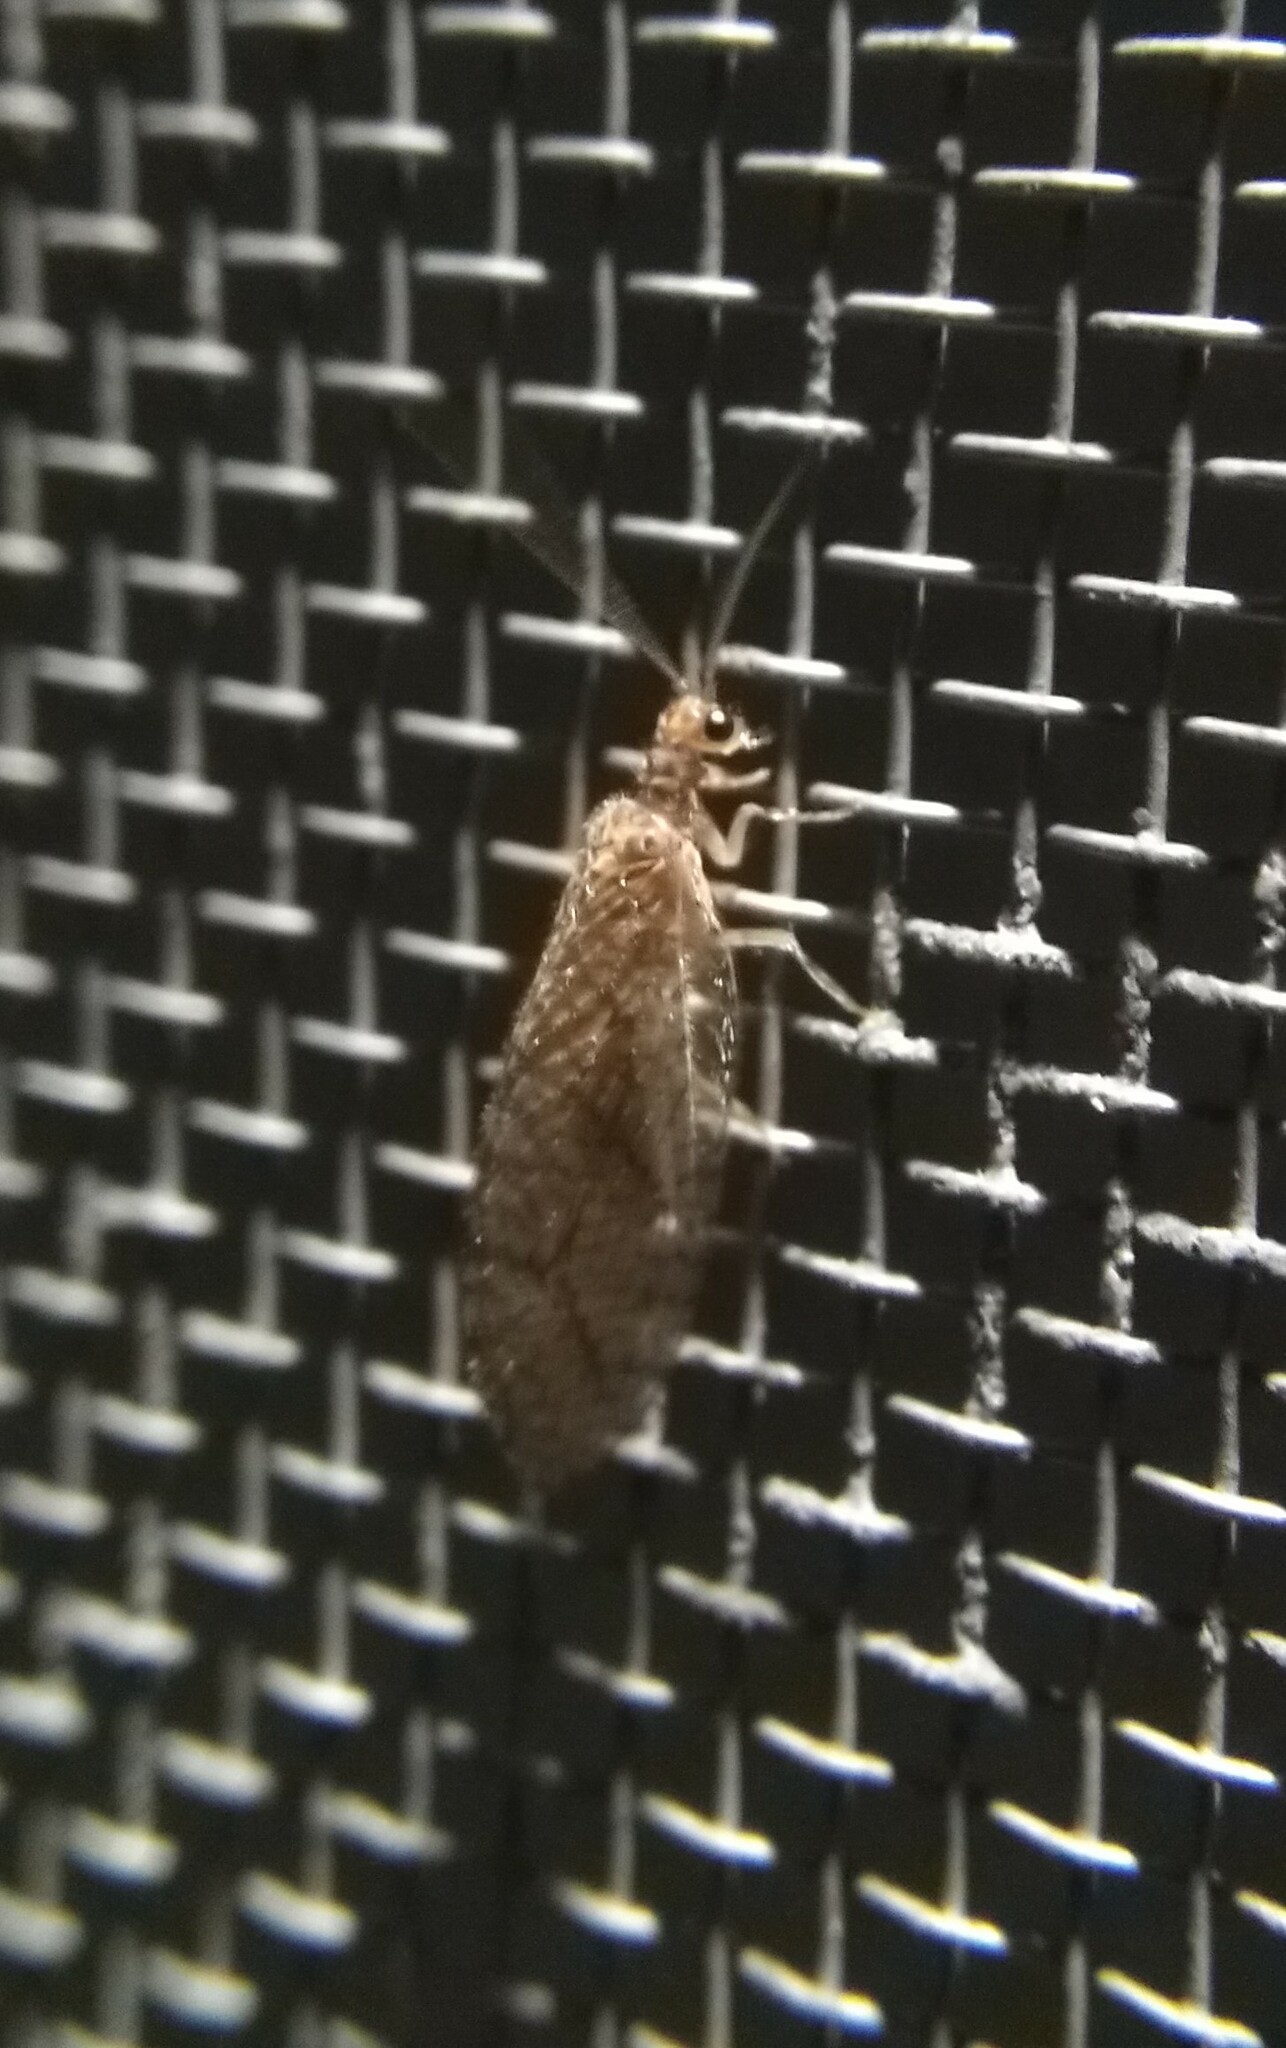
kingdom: Animalia
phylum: Arthropoda
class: Insecta
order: Neuroptera
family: Hemerobiidae
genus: Micromus
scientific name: Micromus posticus
